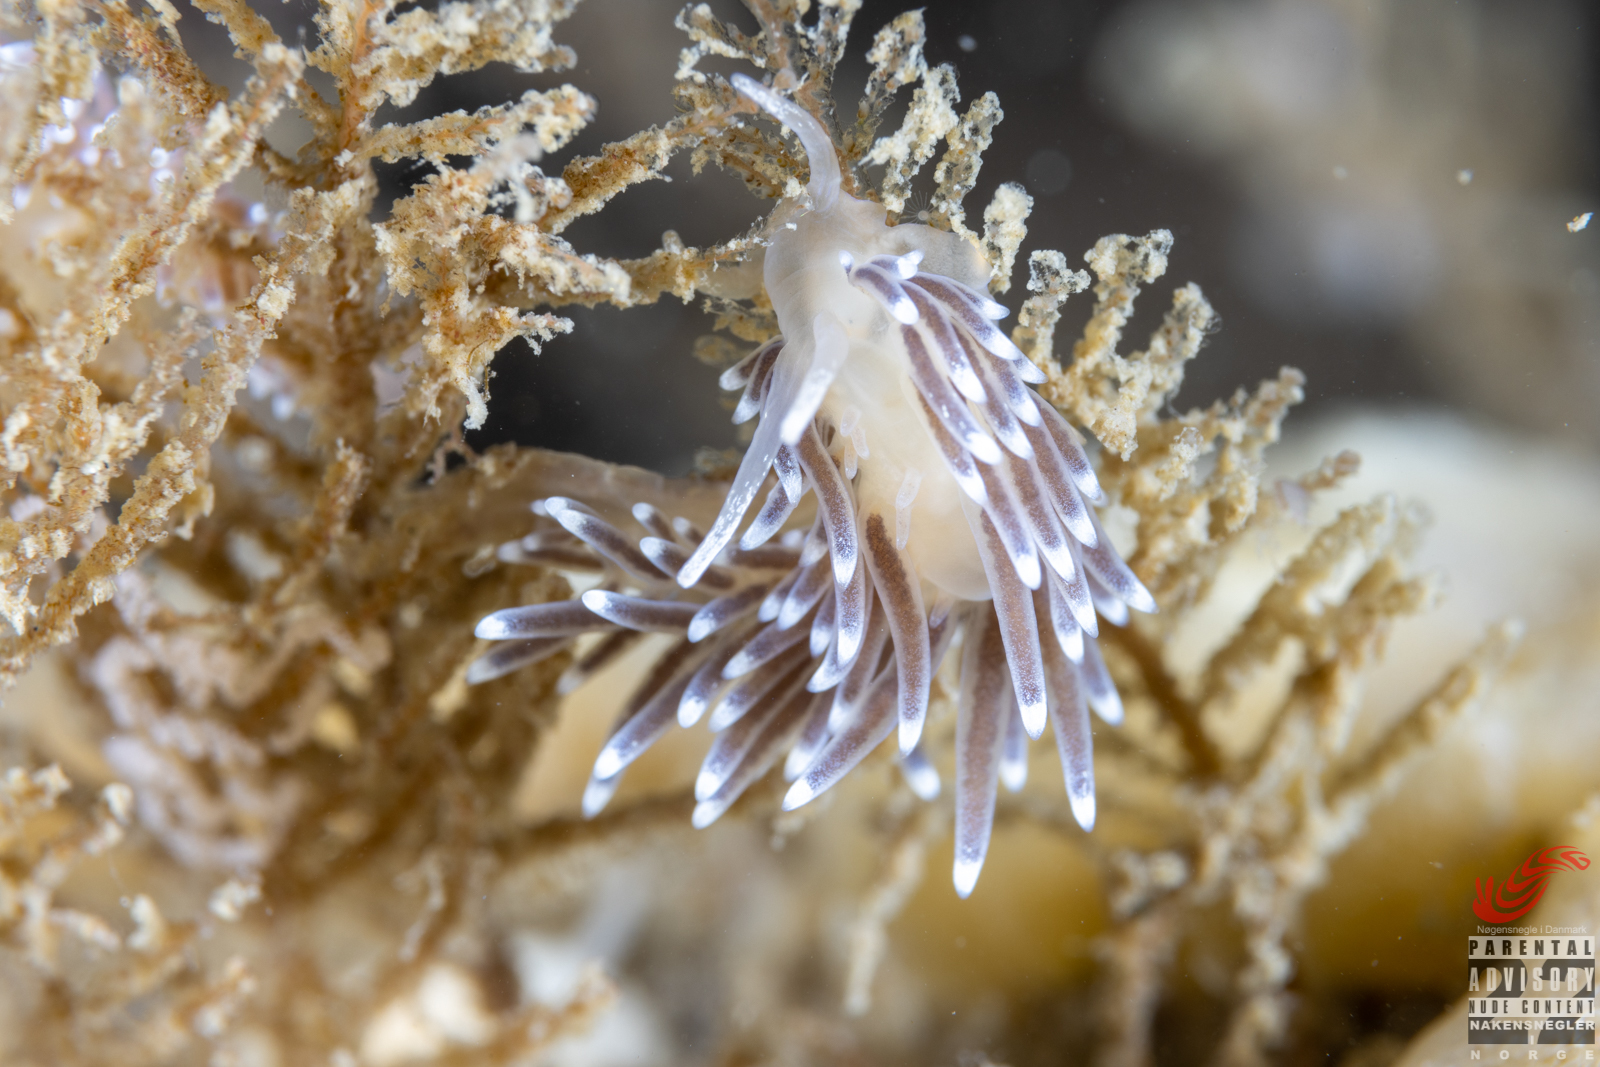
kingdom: Animalia
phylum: Mollusca
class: Gastropoda
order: Nudibranchia
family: Cuthonellidae
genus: Cuthonella
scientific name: Cuthonella concinna
